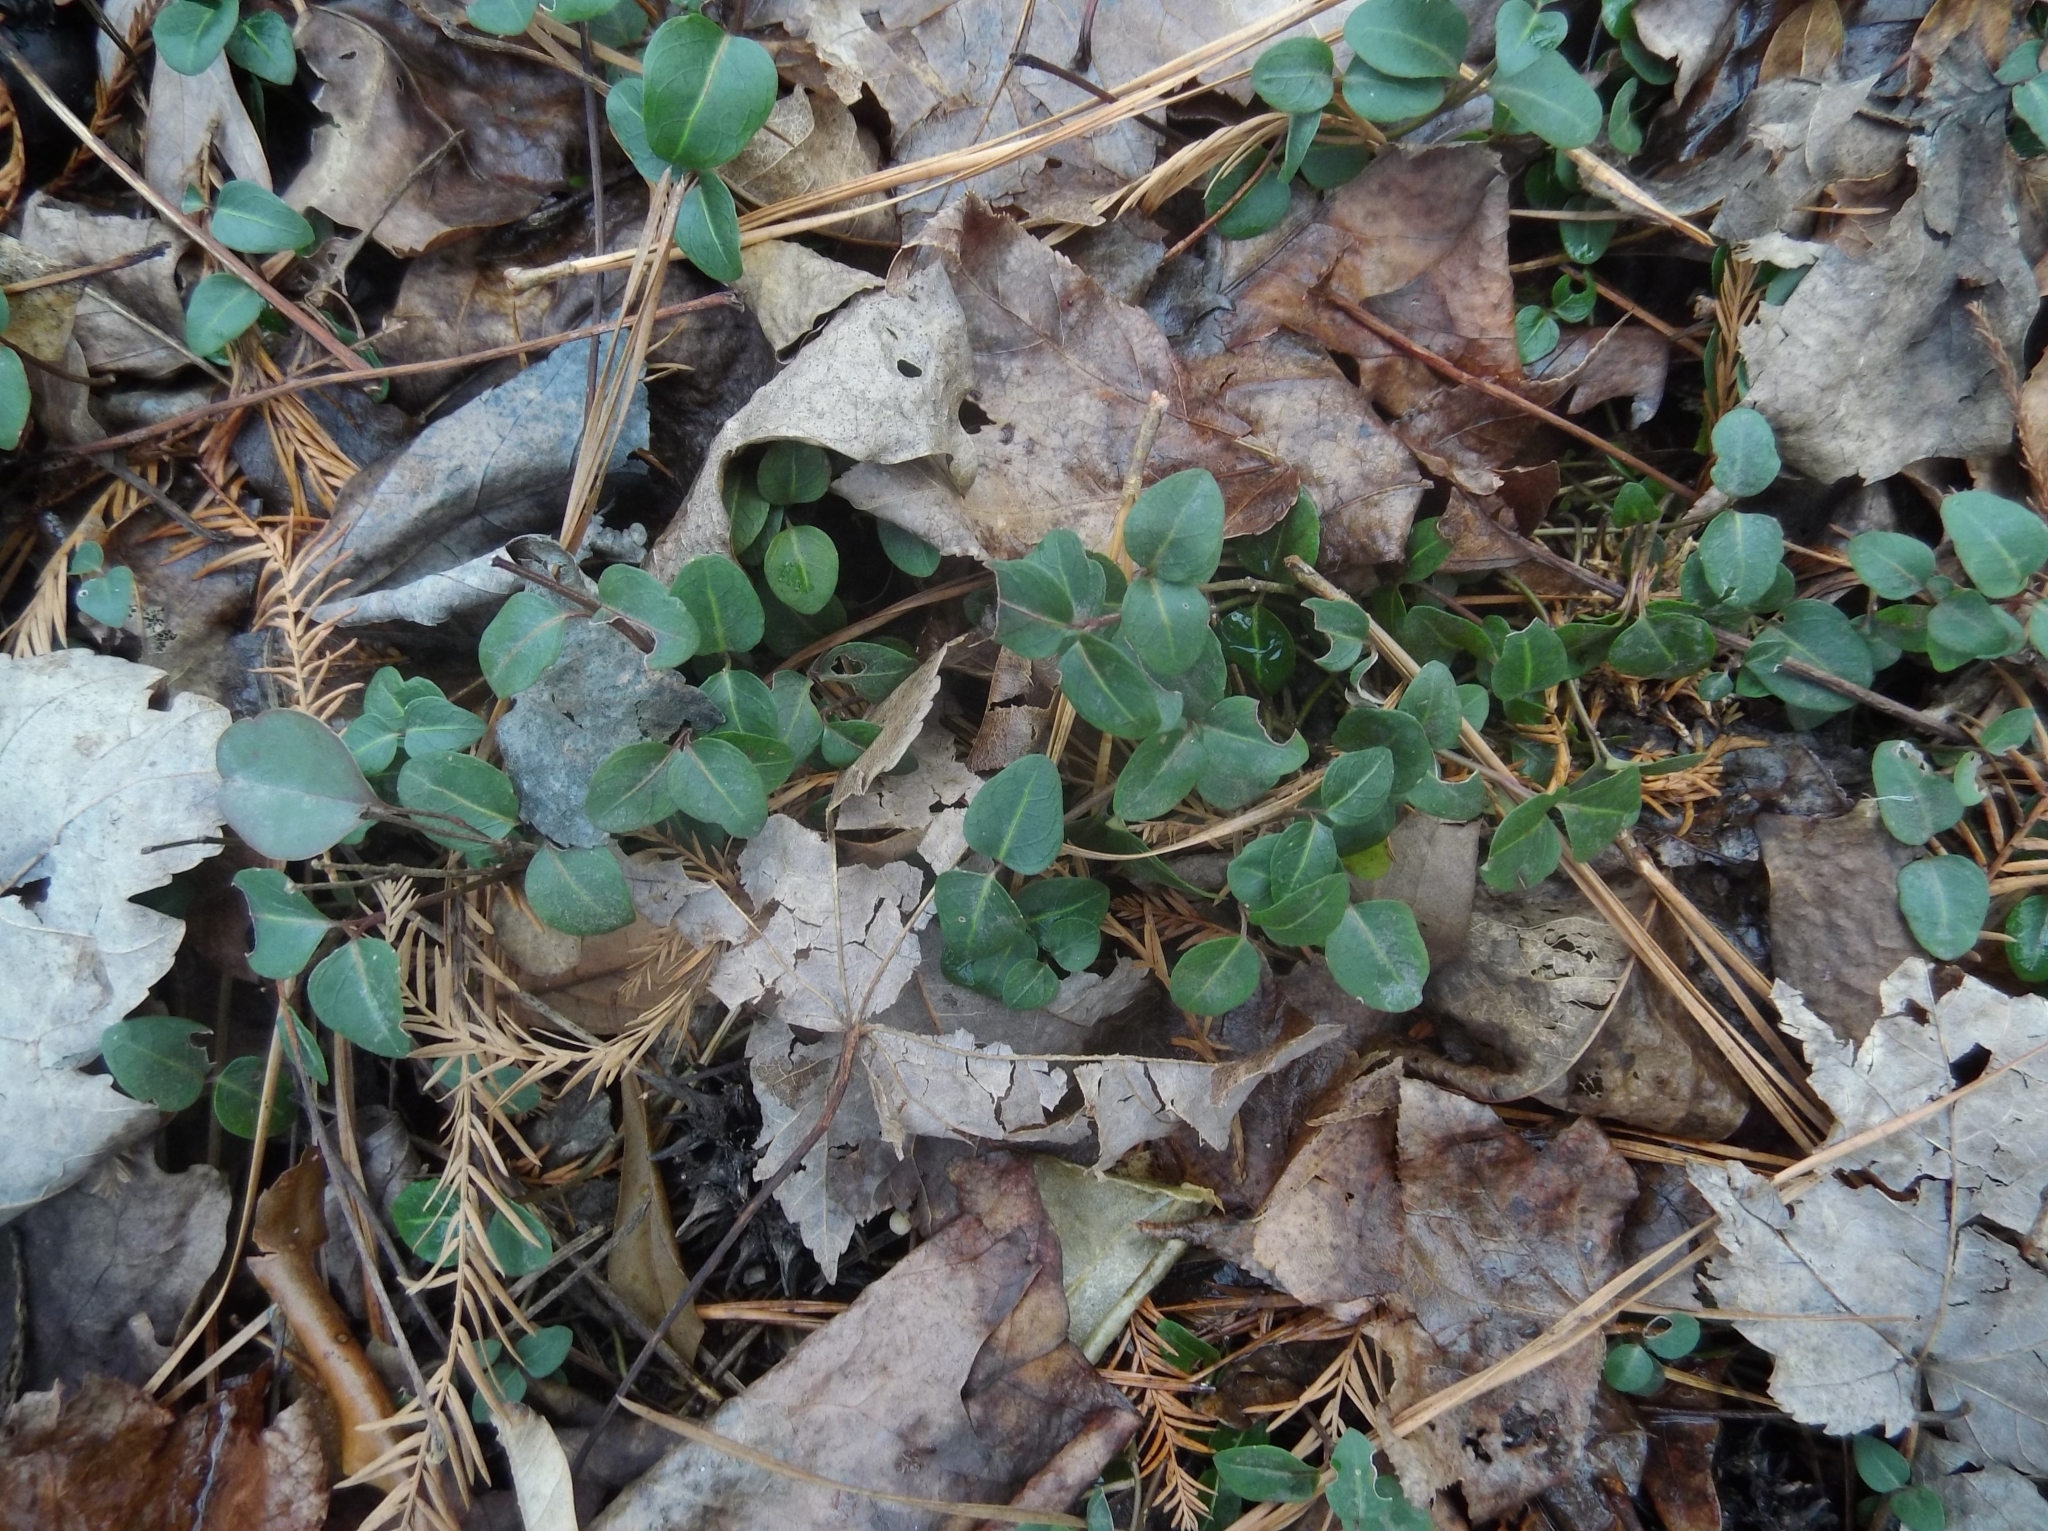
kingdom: Plantae
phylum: Tracheophyta
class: Magnoliopsida
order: Gentianales
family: Rubiaceae
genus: Mitchella
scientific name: Mitchella repens
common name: Partridge-berry
